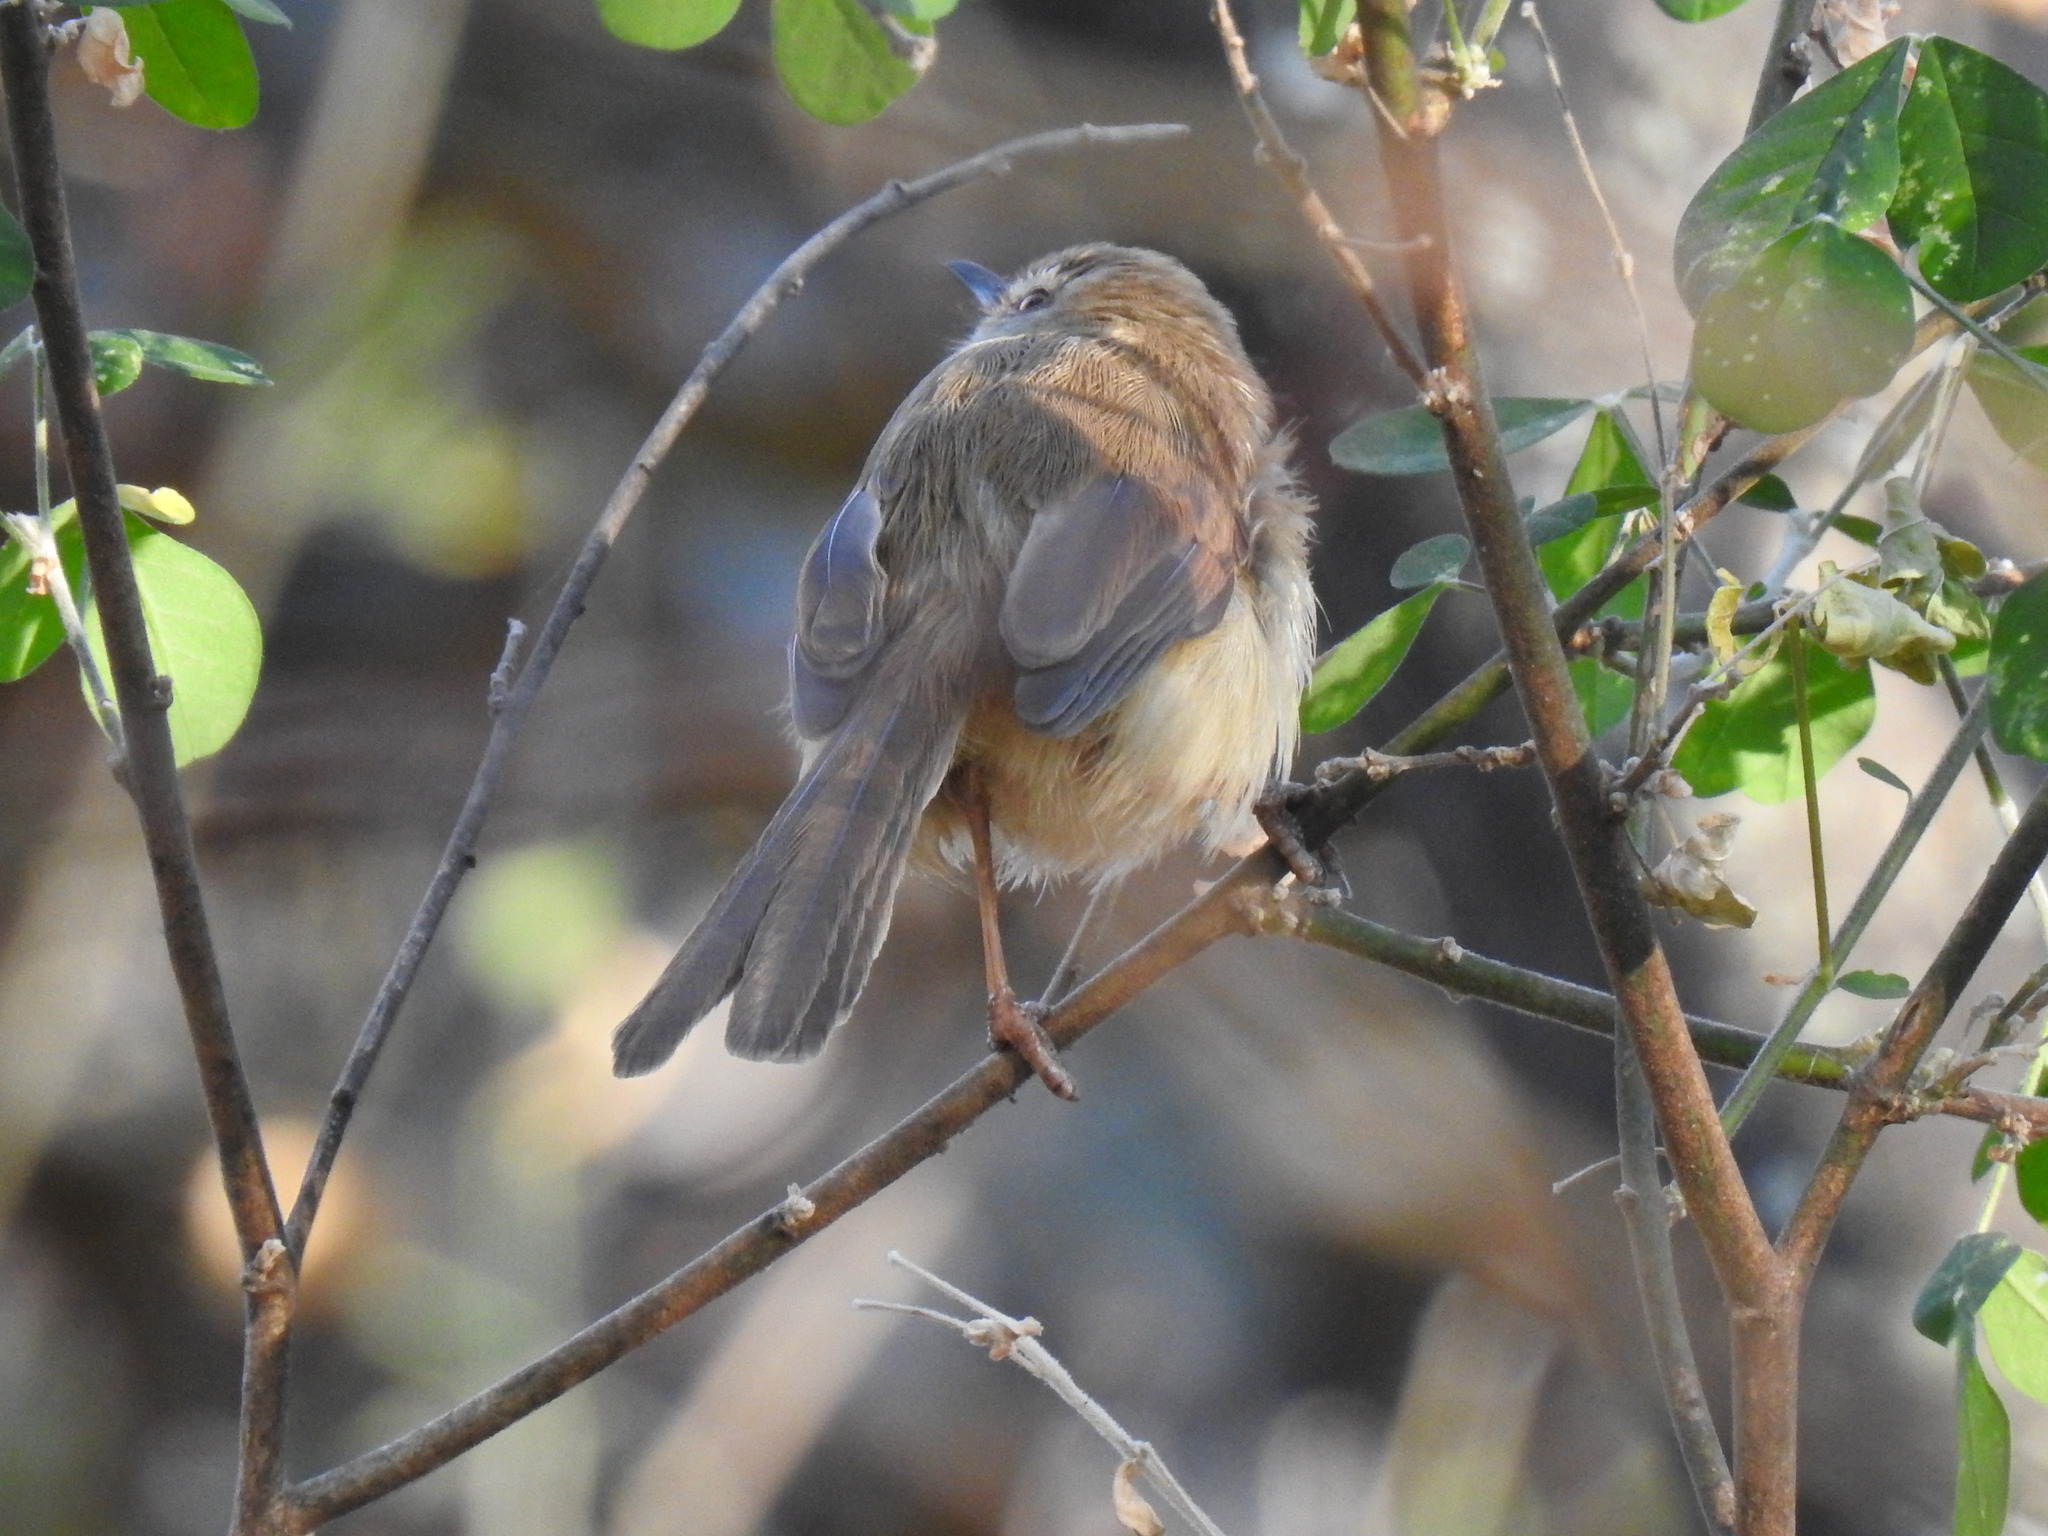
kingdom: Animalia
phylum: Chordata
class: Aves
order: Passeriformes
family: Cisticolidae
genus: Prinia
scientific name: Prinia subflava
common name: Tawny-flanked prinia
